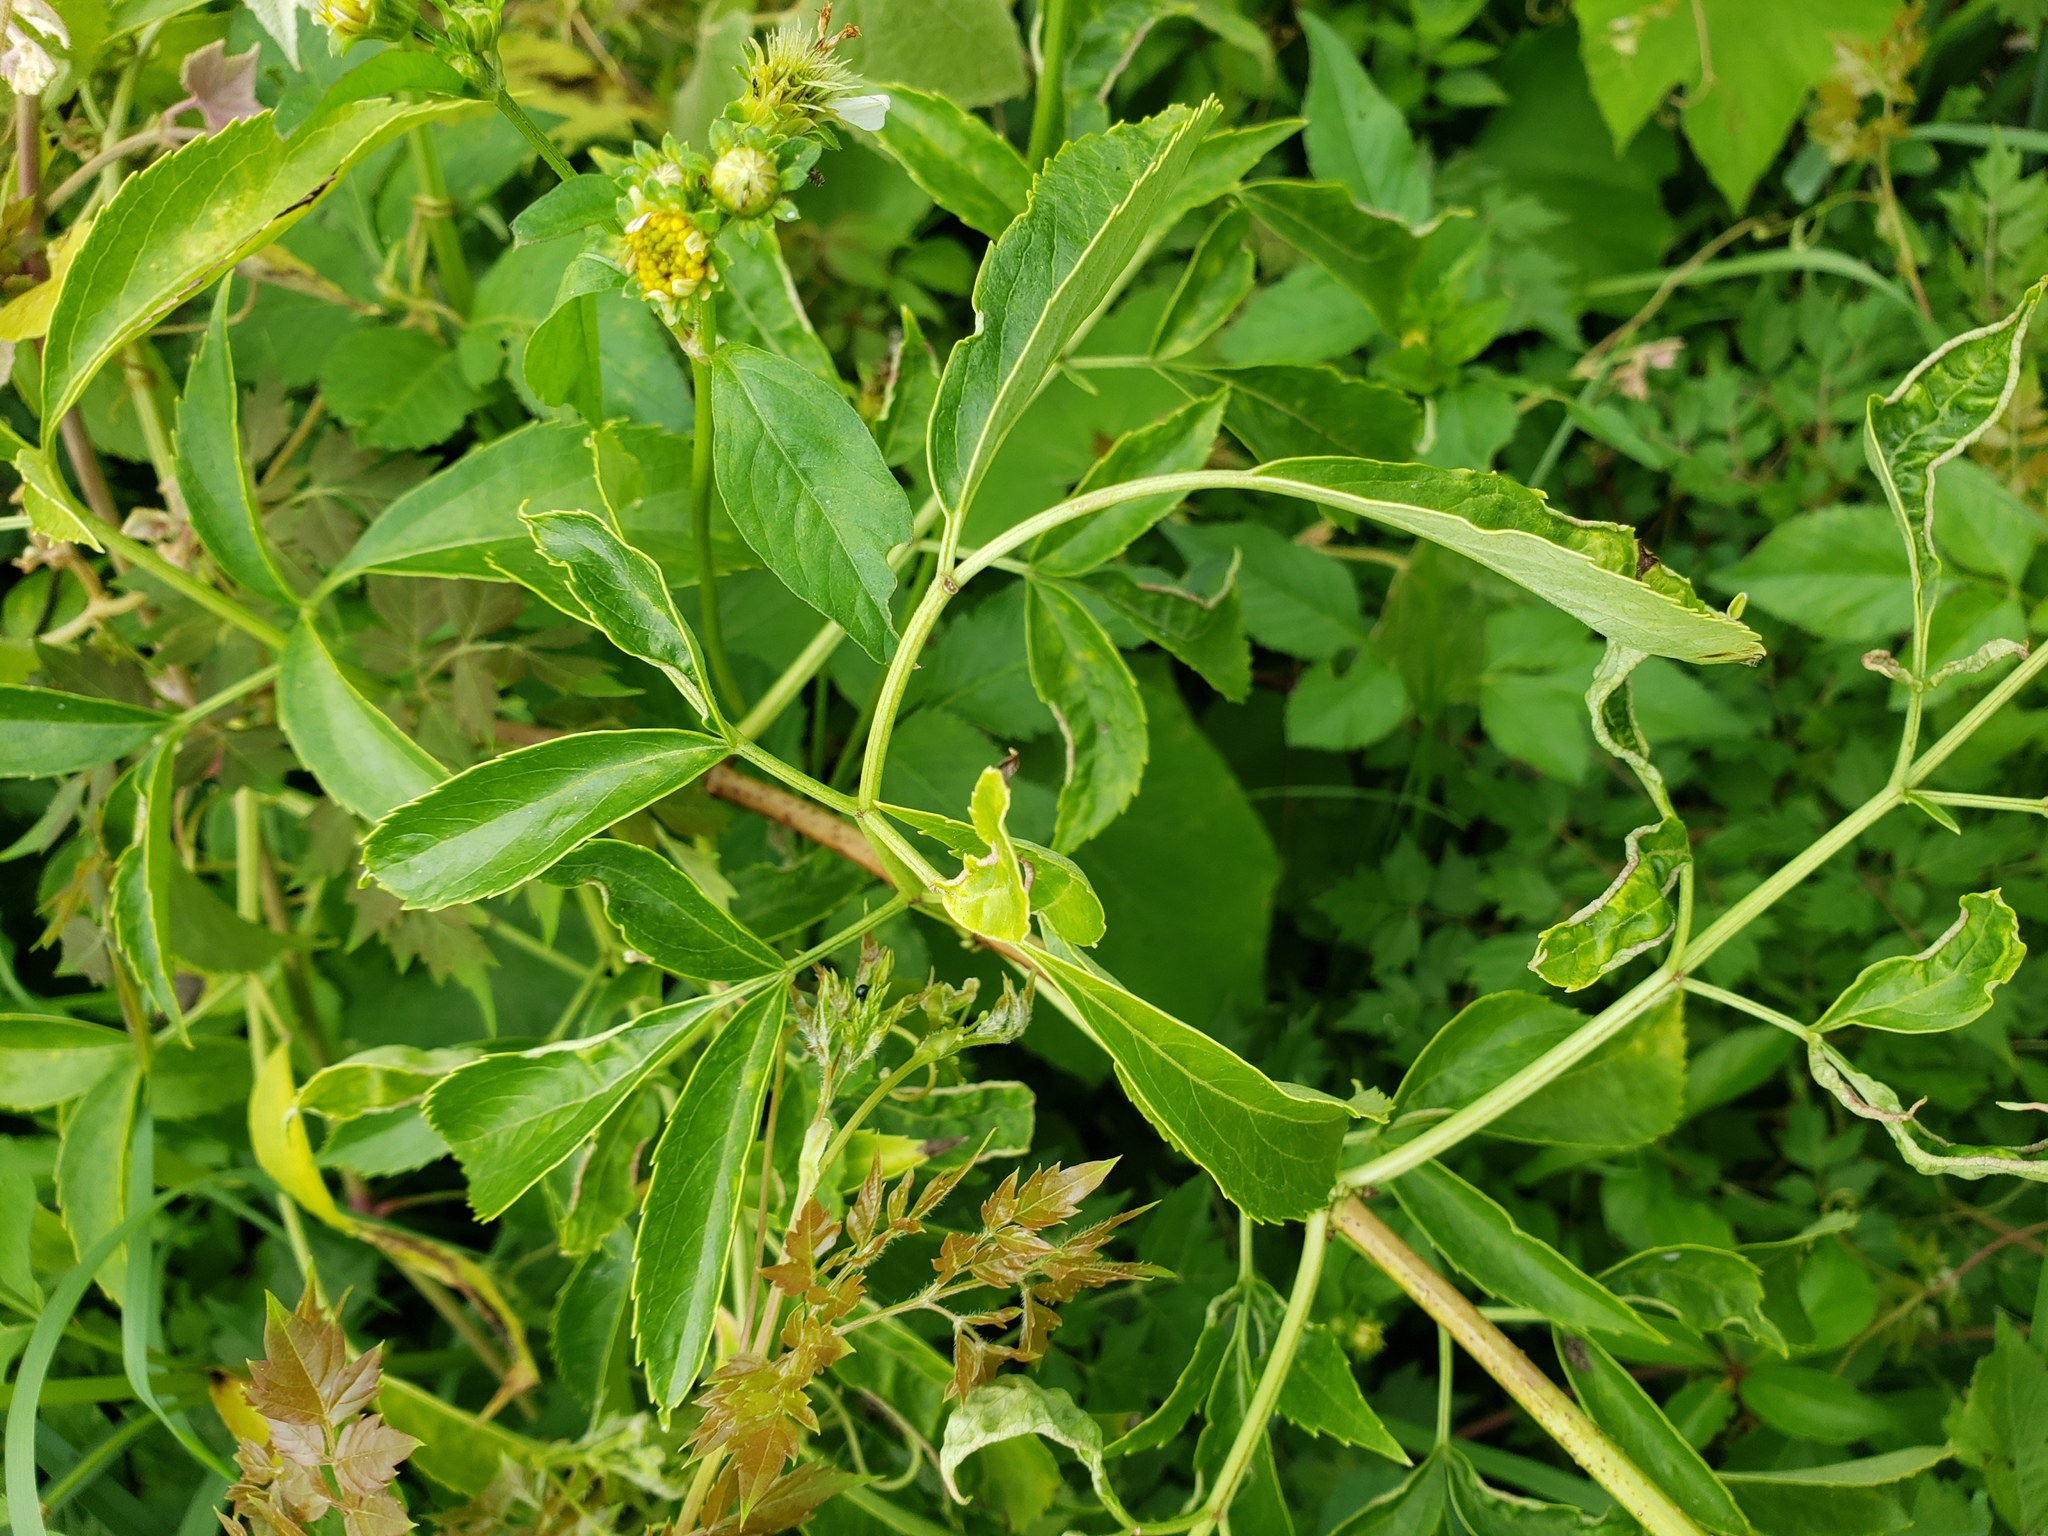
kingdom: Plantae
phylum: Tracheophyta
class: Magnoliopsida
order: Dipsacales
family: Viburnaceae
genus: Sambucus
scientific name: Sambucus canadensis
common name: American elder
